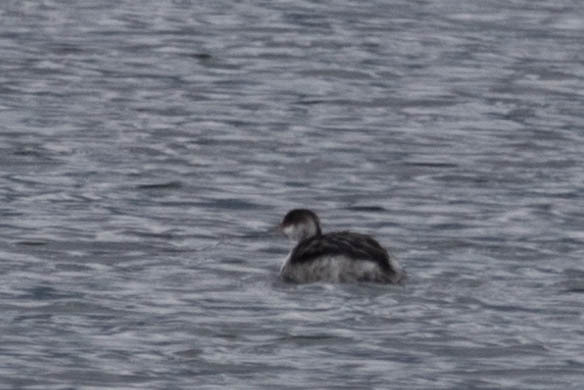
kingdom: Animalia
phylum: Chordata
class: Aves
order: Podicipediformes
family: Podicipedidae
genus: Podiceps
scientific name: Podiceps auritus
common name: Horned grebe
